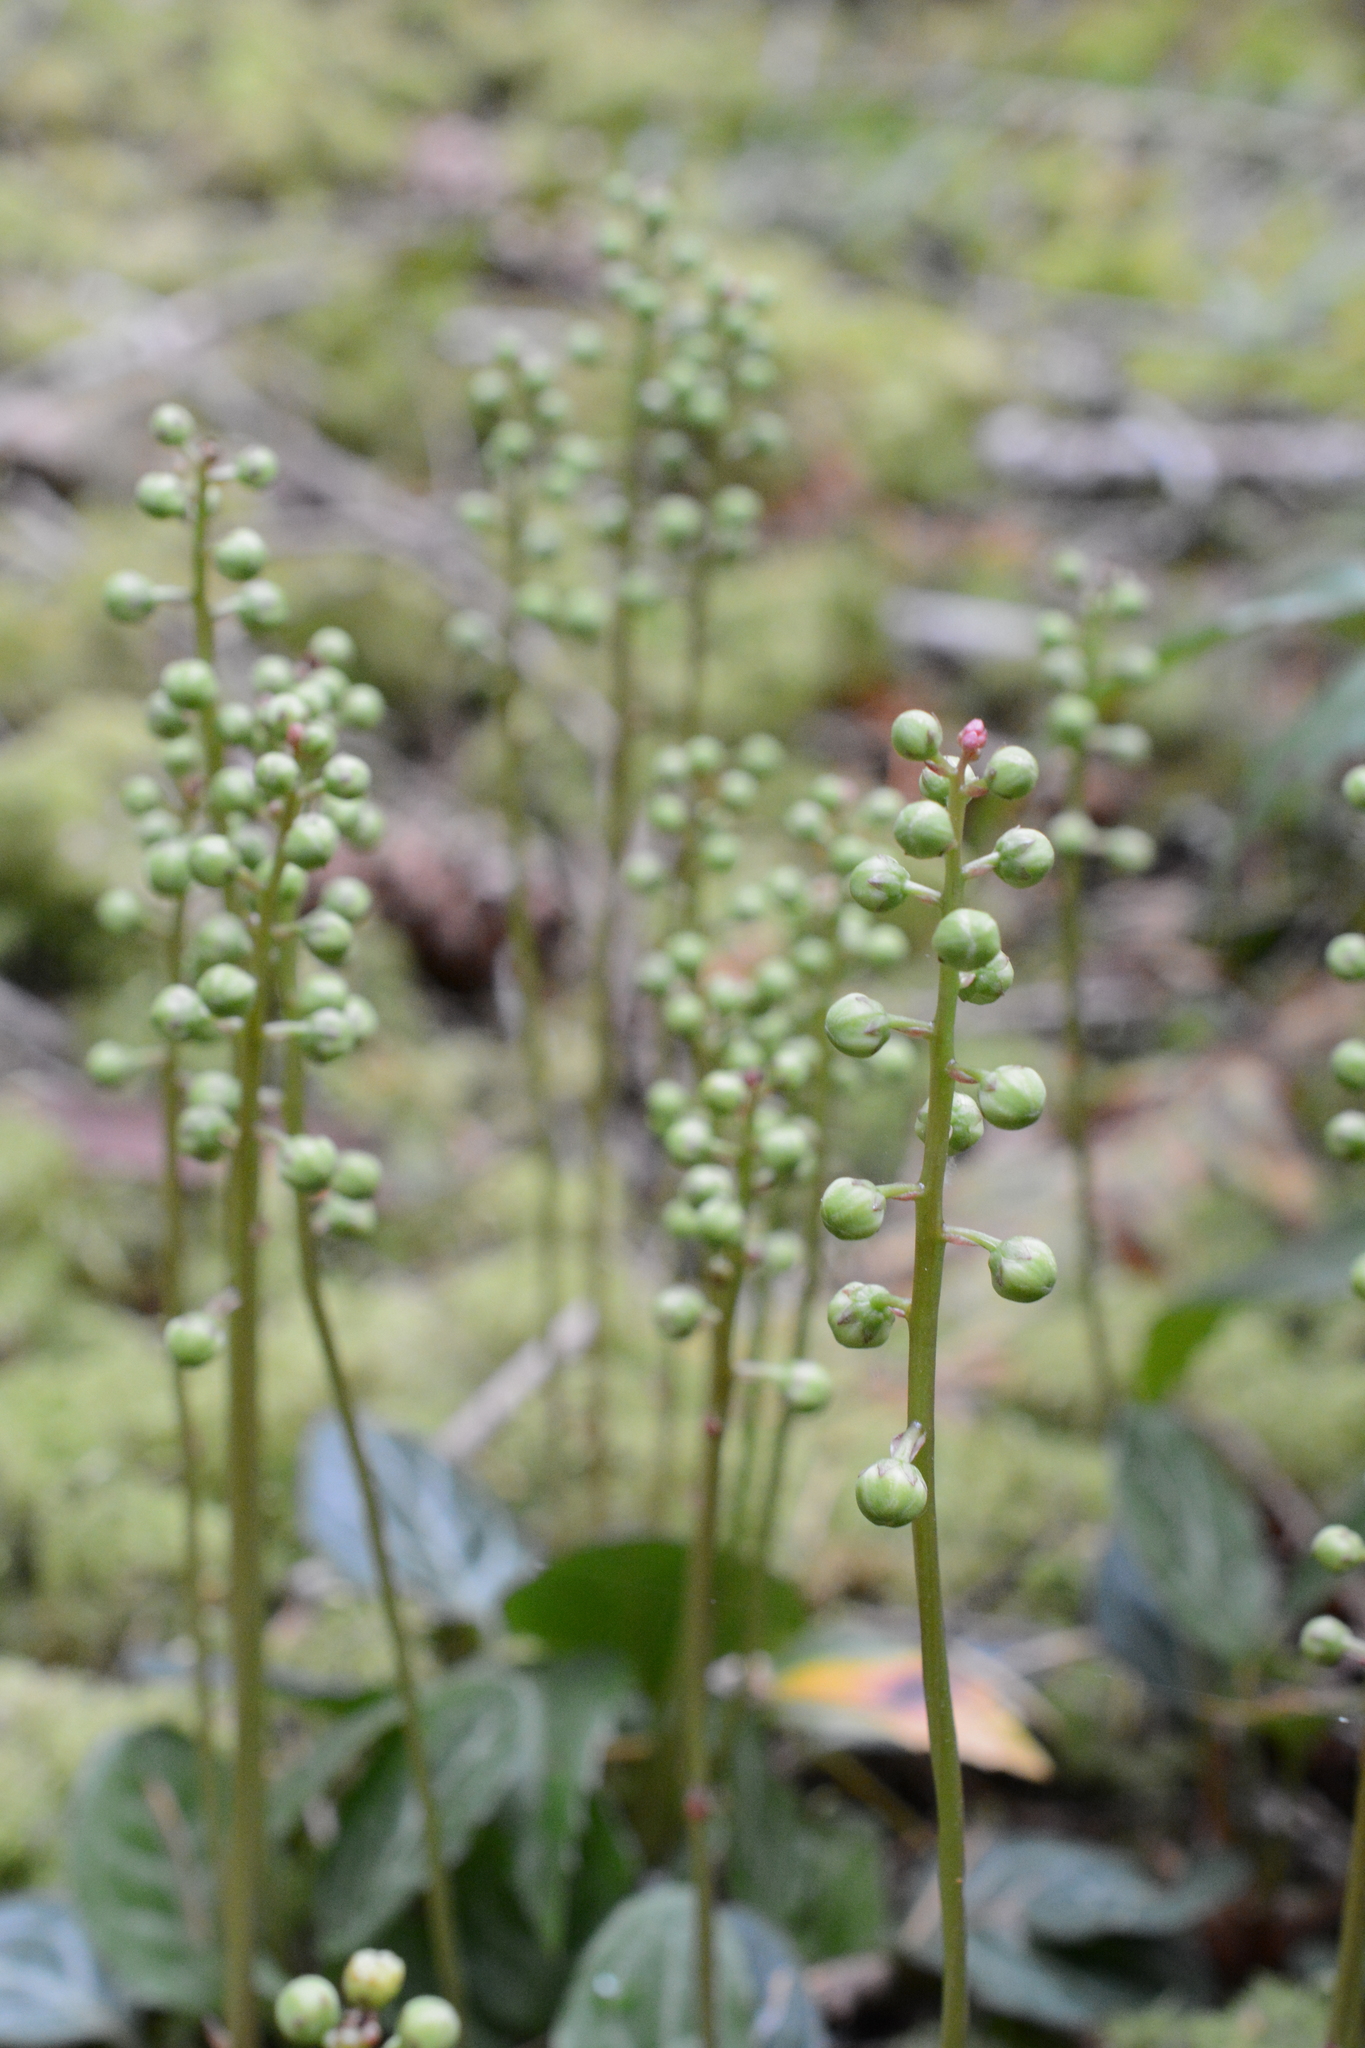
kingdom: Plantae
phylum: Tracheophyta
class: Magnoliopsida
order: Ericales
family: Ericaceae
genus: Pyrola
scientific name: Pyrola picta
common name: White-vein wintergreen
